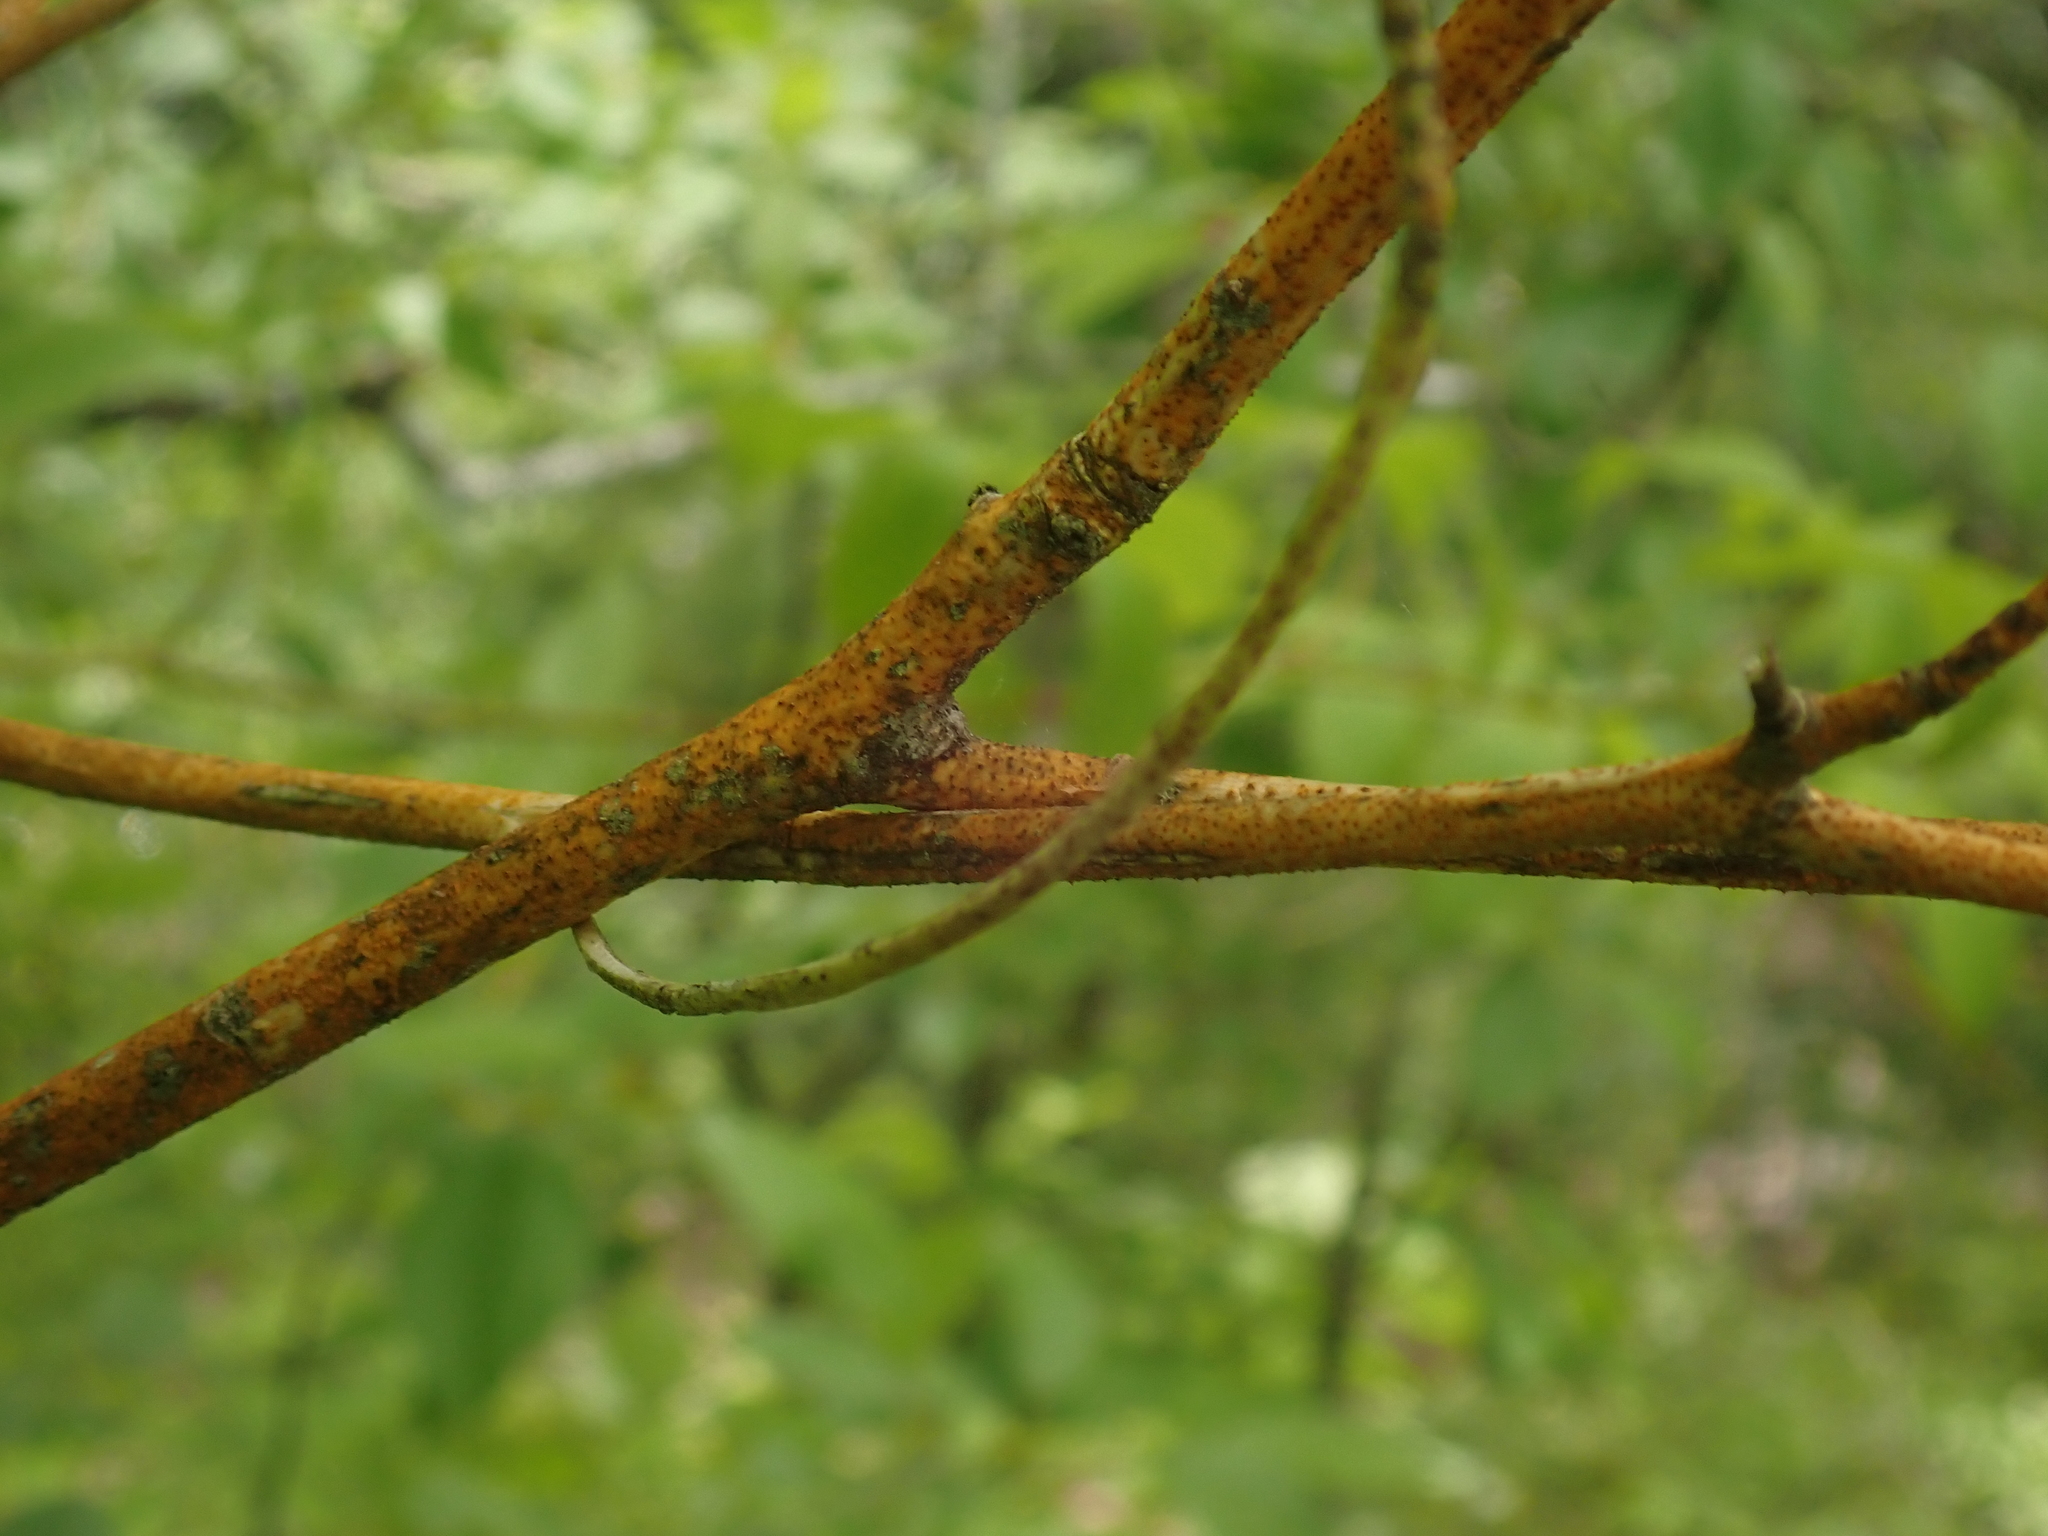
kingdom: Plantae
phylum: Tracheophyta
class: Magnoliopsida
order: Cornales
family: Cornaceae
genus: Cornus
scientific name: Cornus alternifolia
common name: Pagoda dogwood
